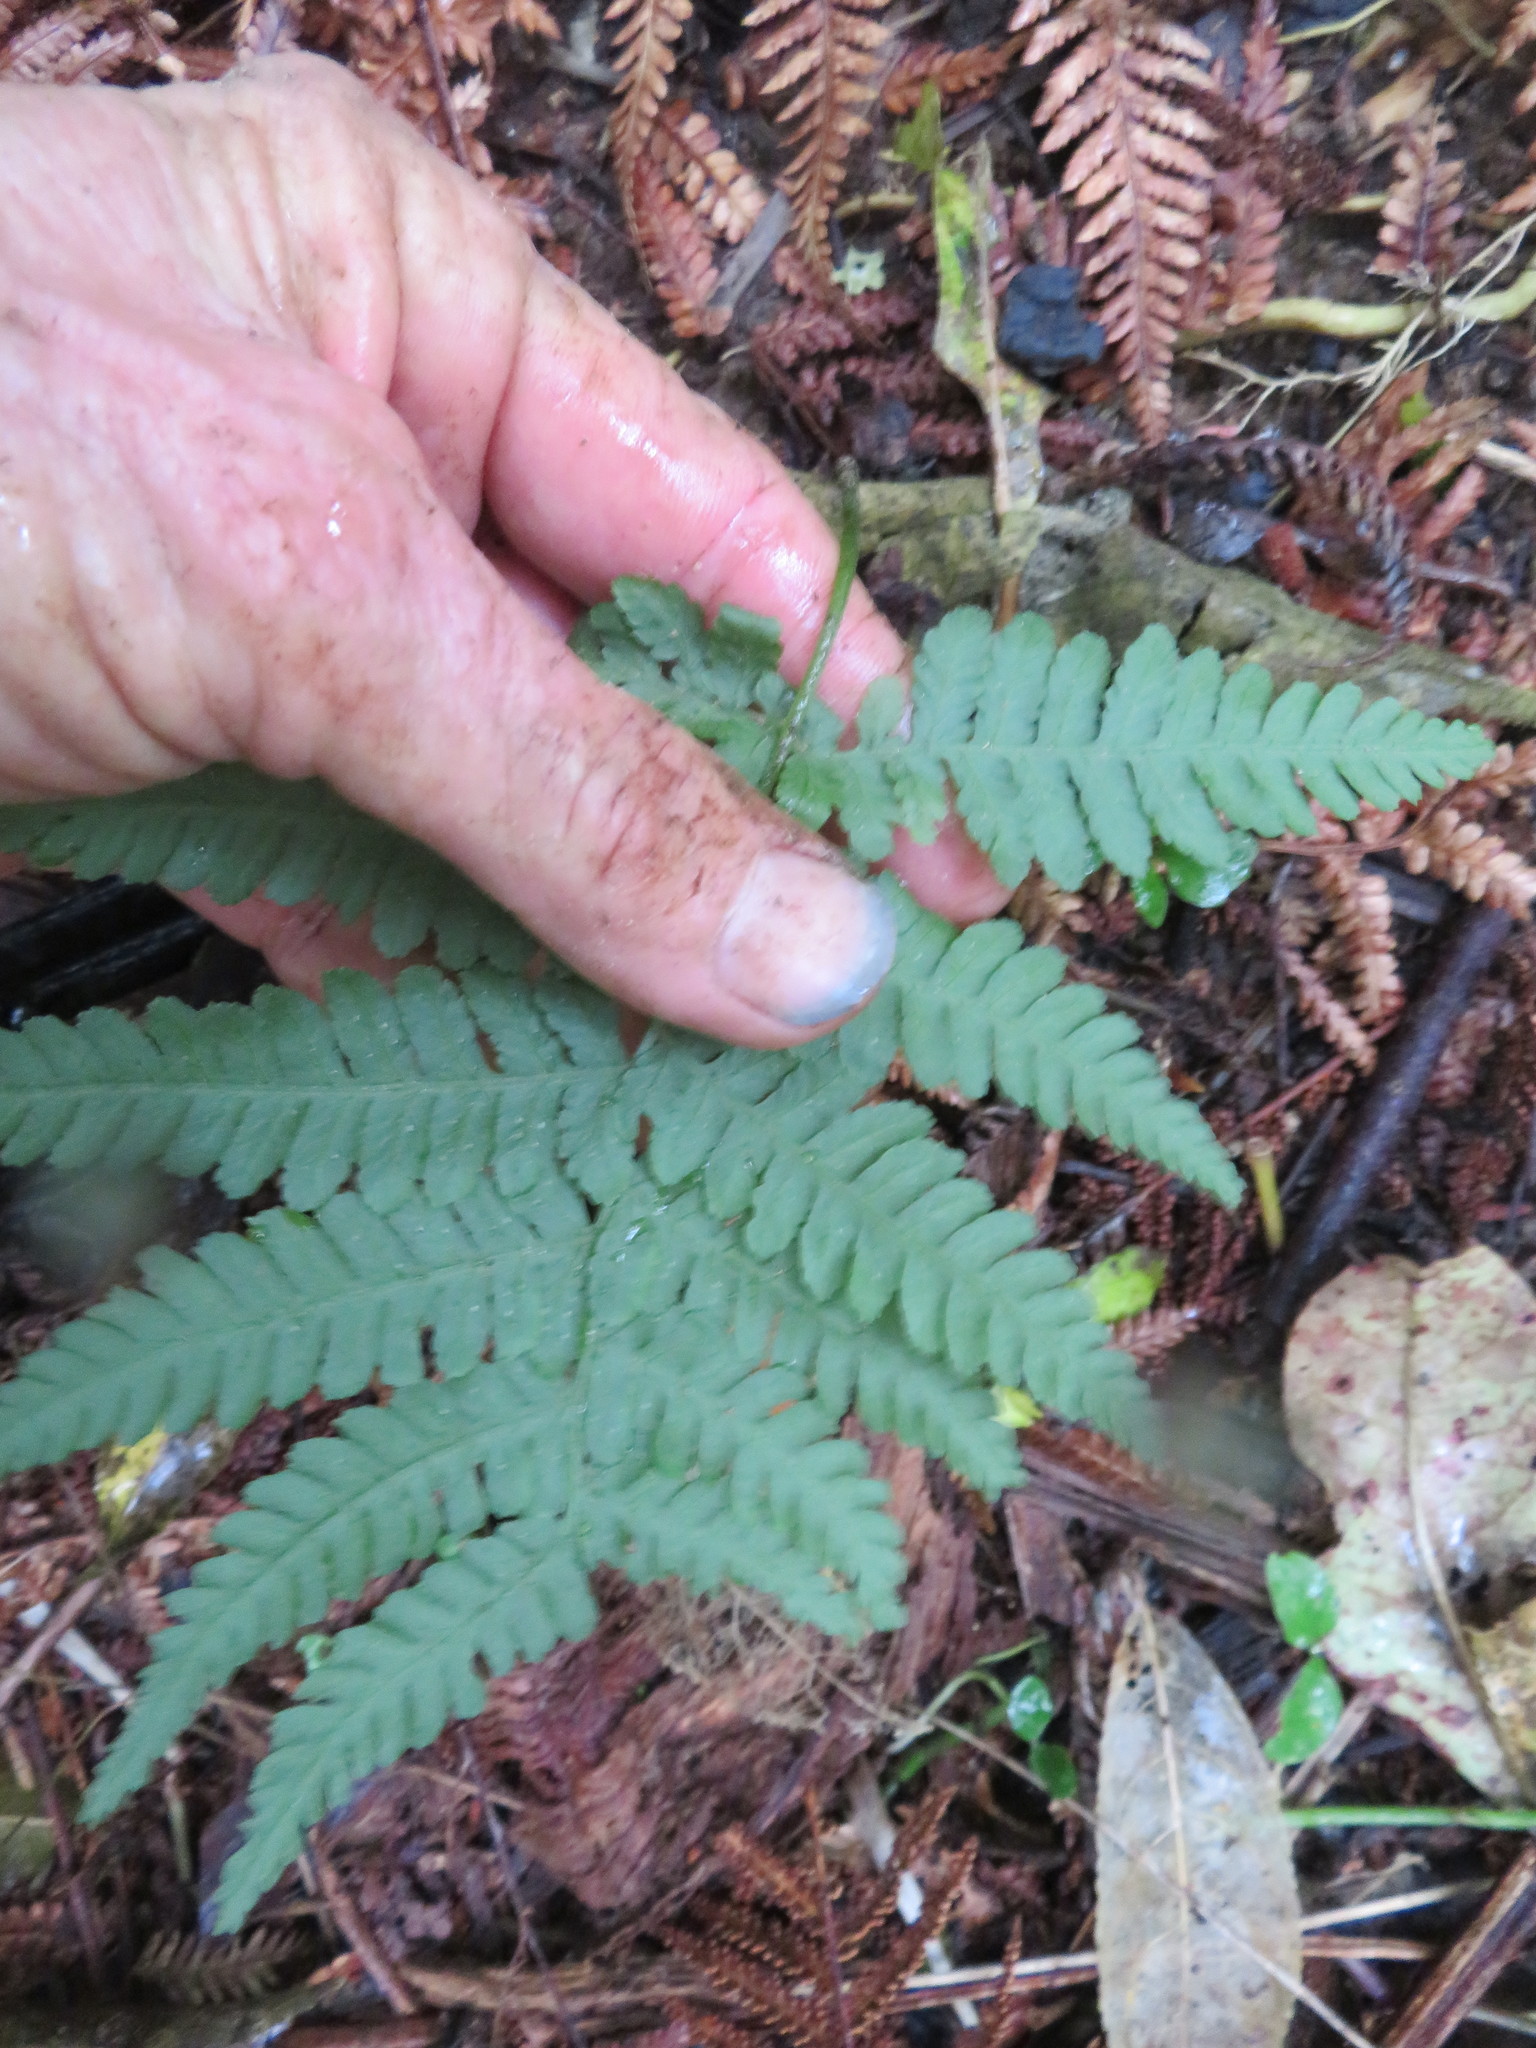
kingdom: Plantae
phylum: Tracheophyta
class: Polypodiopsida
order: Polypodiales
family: Athyriaceae
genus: Deparia
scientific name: Deparia petersenii
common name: Japanese false spleenwort
